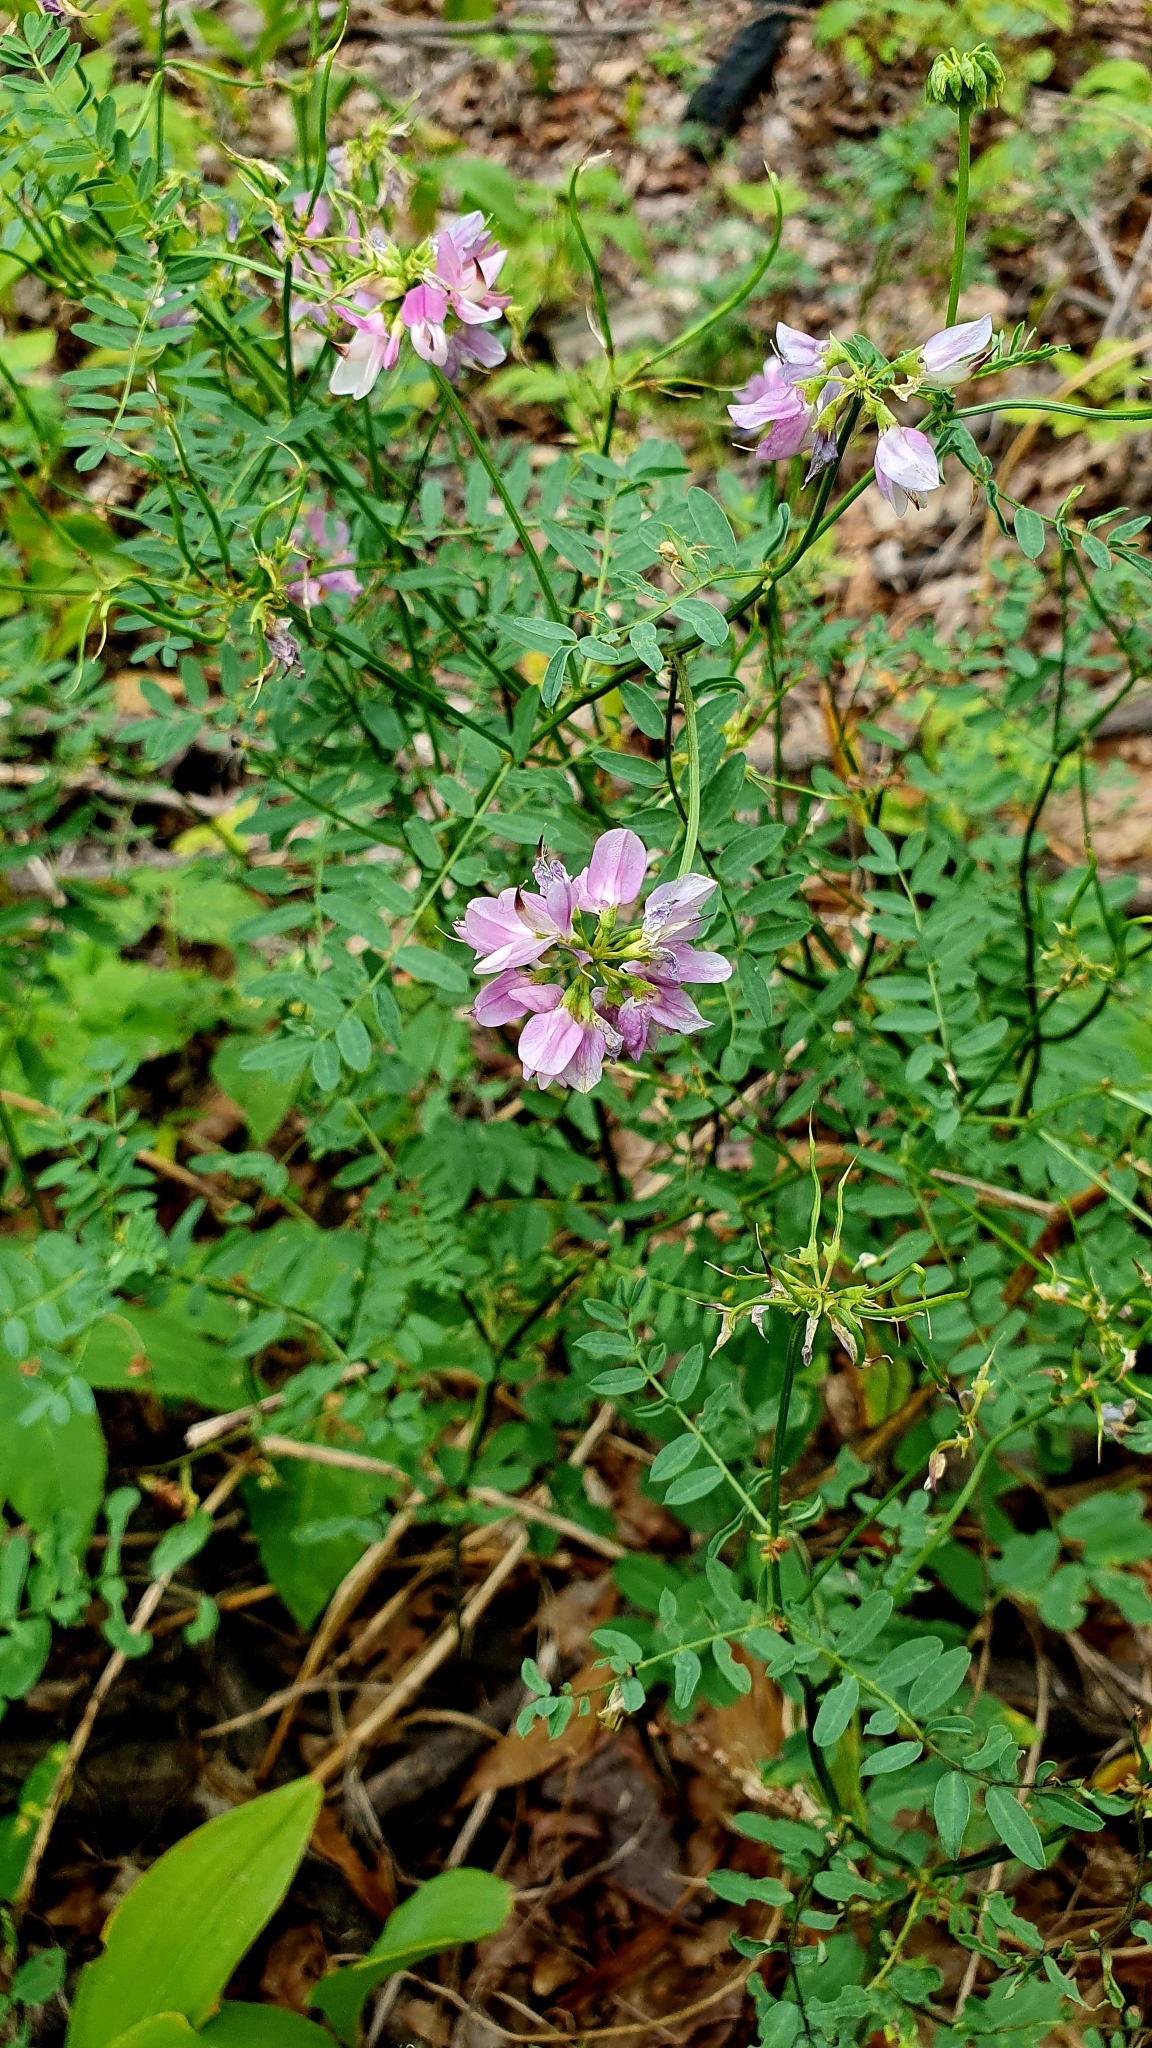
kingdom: Plantae
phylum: Tracheophyta
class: Magnoliopsida
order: Fabales
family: Fabaceae
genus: Coronilla
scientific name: Coronilla varia
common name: Crownvetch
